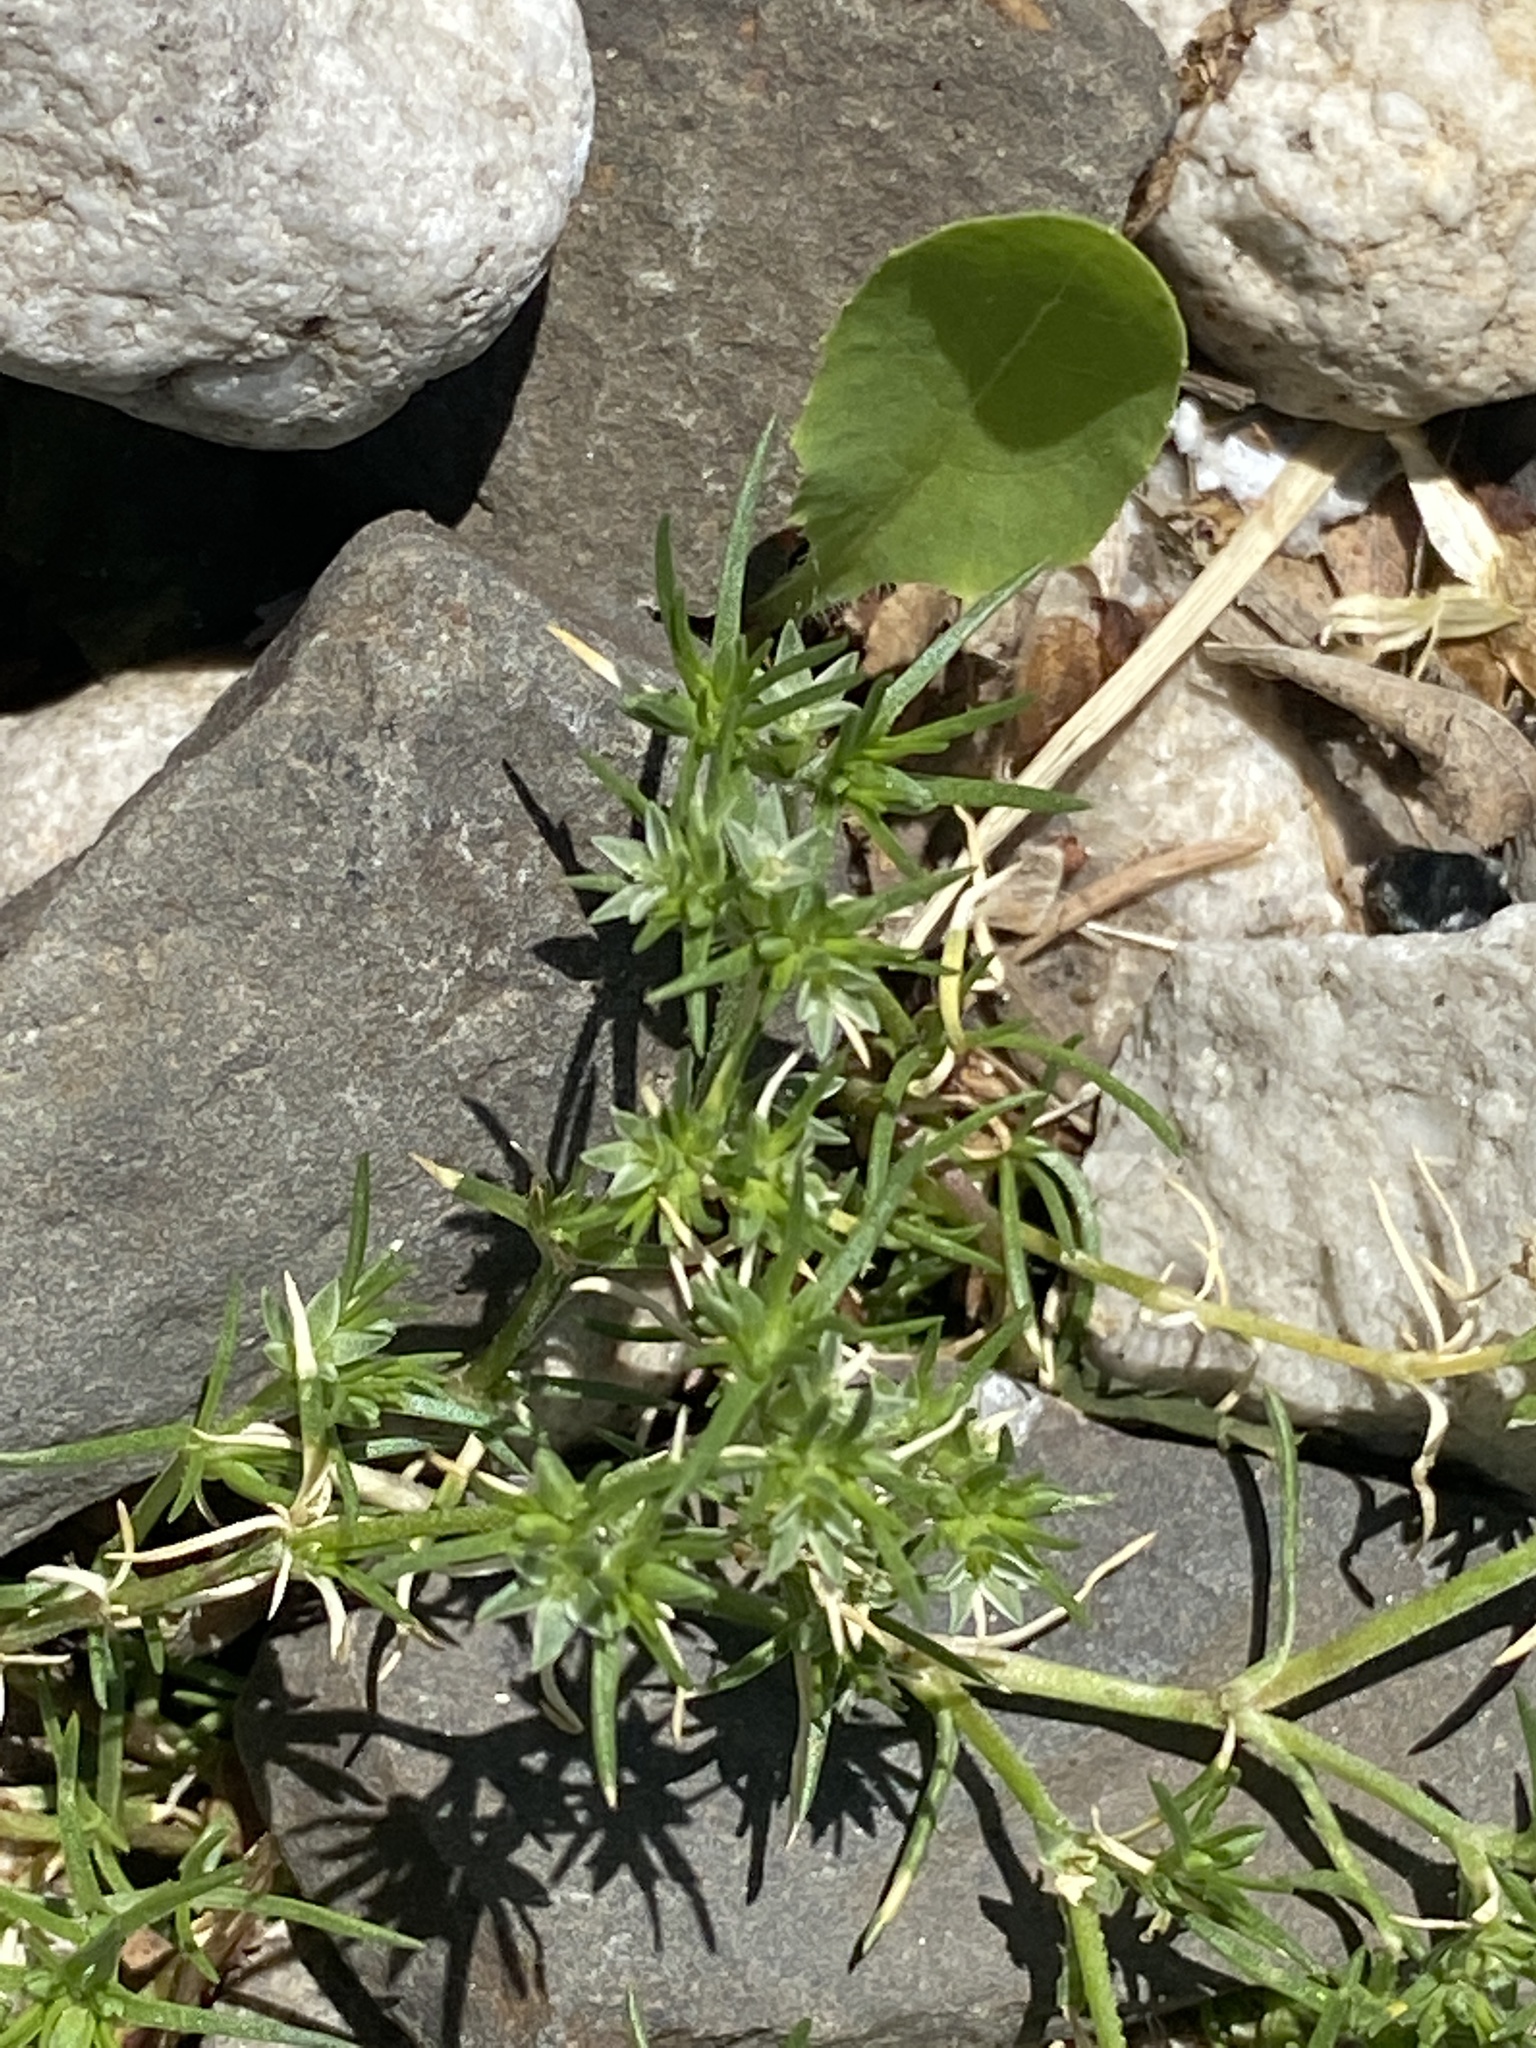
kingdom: Plantae
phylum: Tracheophyta
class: Magnoliopsida
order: Caryophyllales
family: Caryophyllaceae
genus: Scleranthus
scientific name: Scleranthus annuus
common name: Annual knawel
